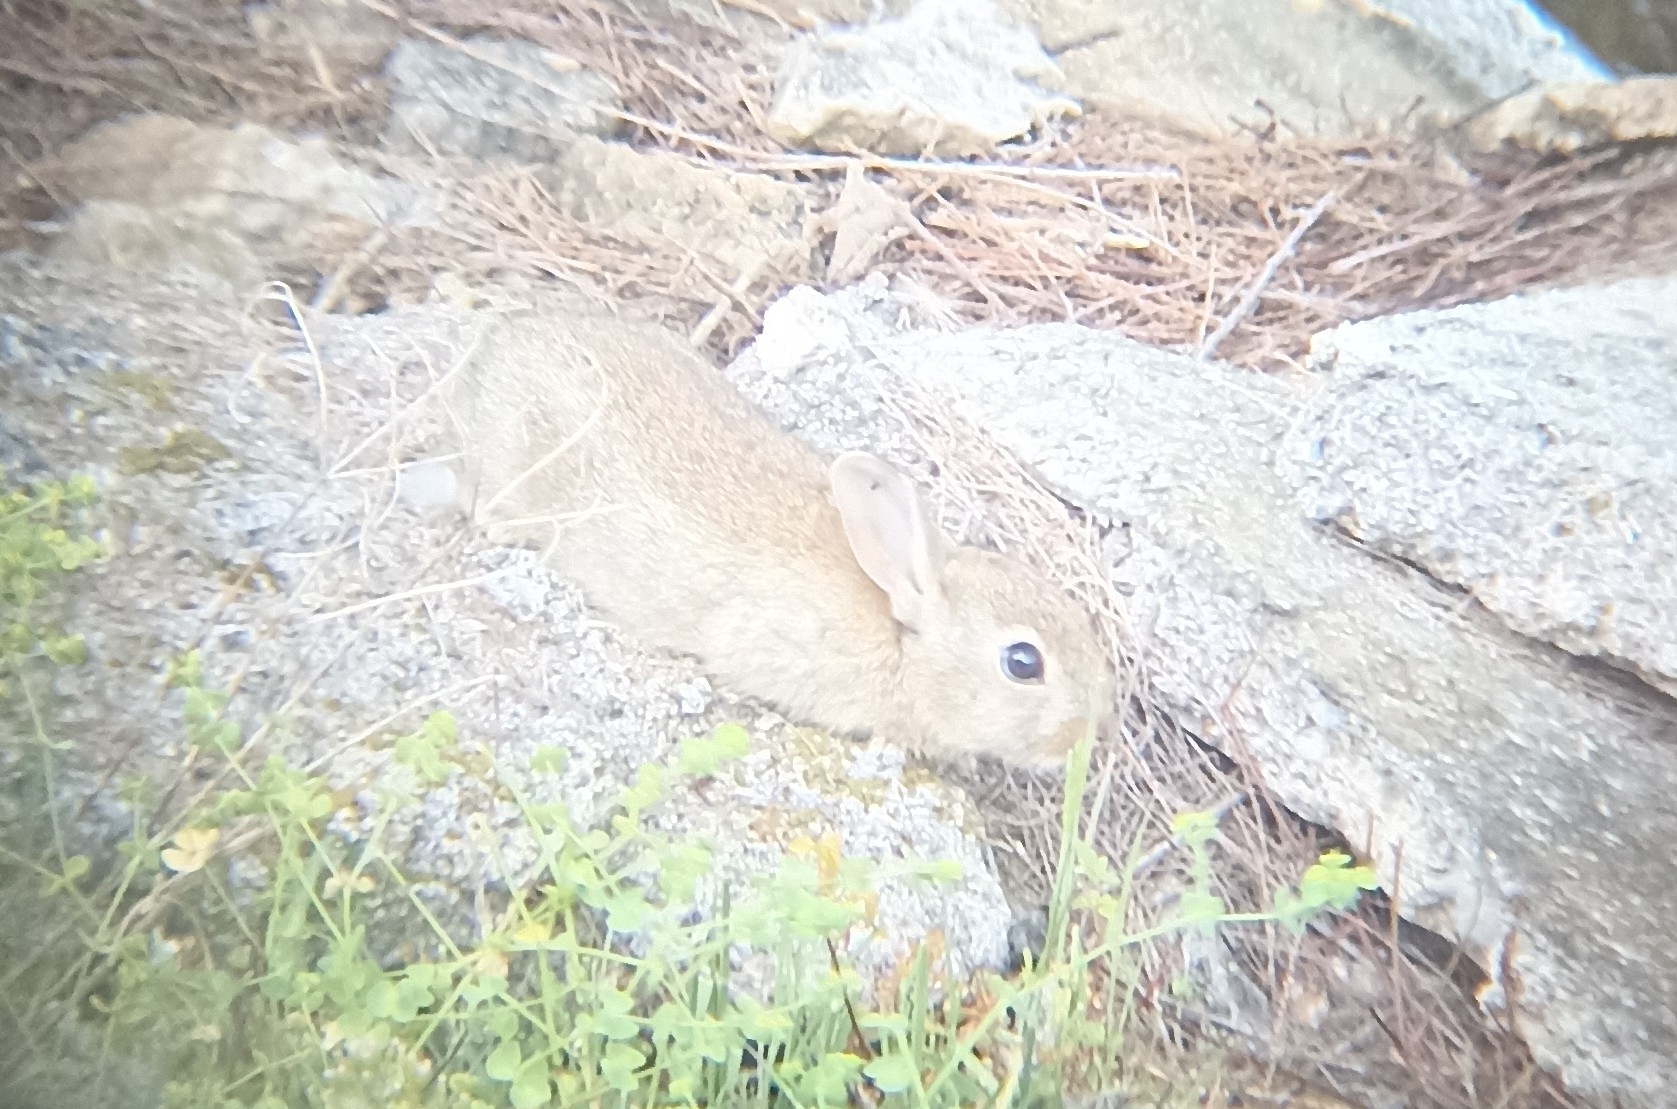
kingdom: Animalia
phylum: Chordata
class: Mammalia
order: Lagomorpha
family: Leporidae
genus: Oryctolagus
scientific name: Oryctolagus cuniculus
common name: European rabbit
